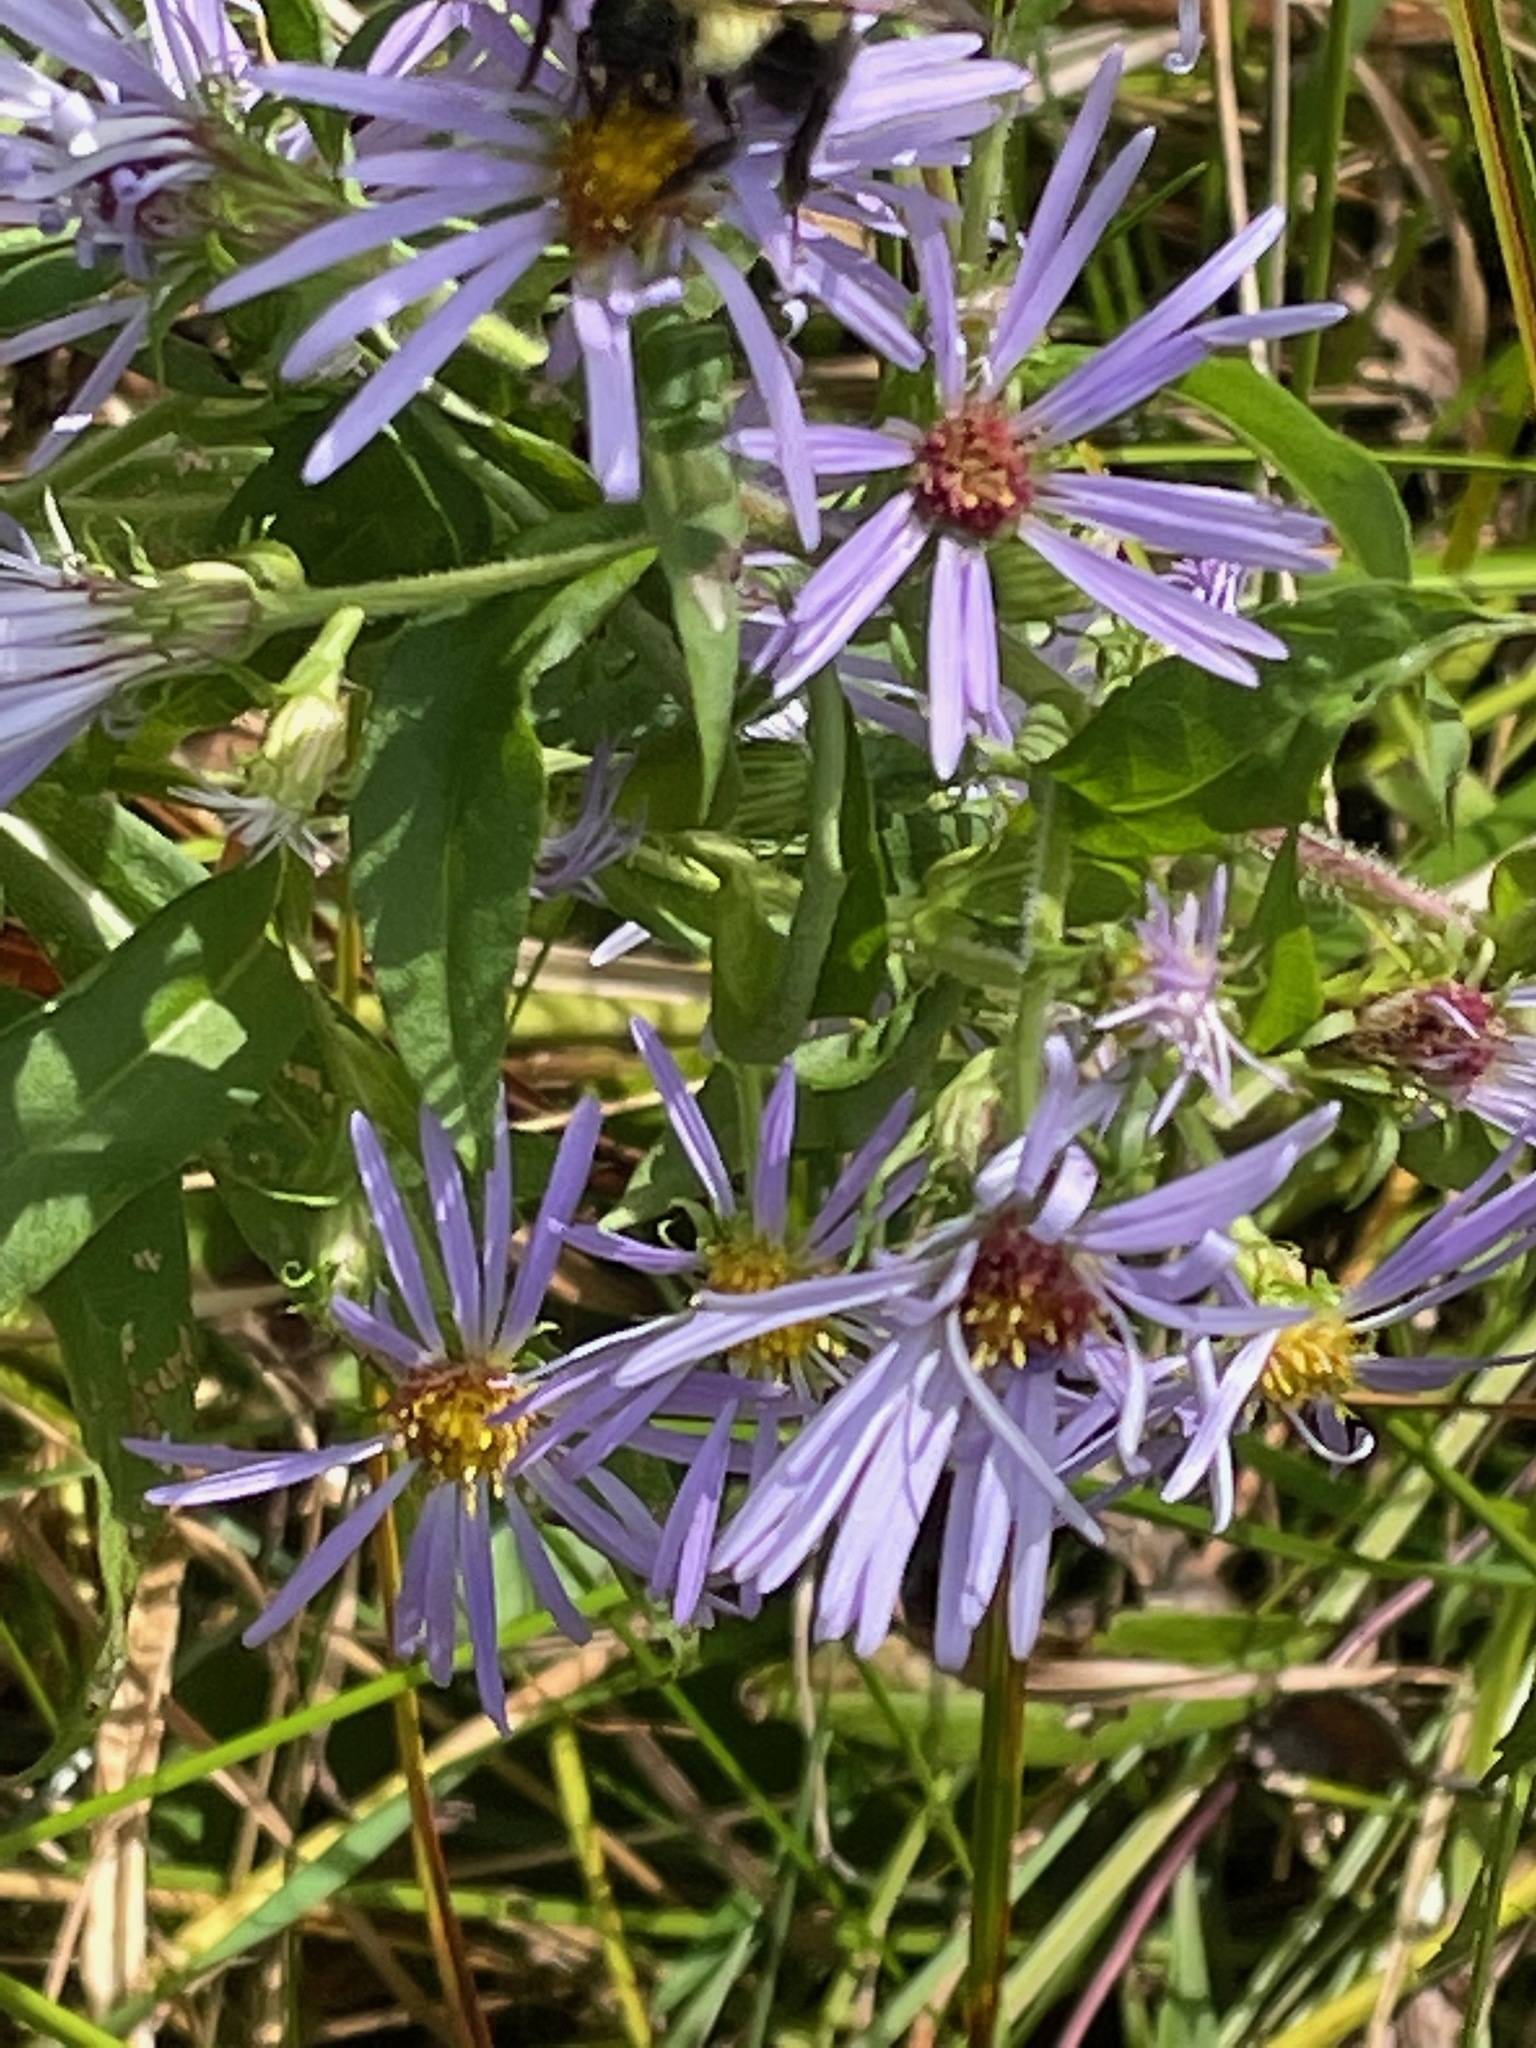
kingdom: Plantae
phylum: Tracheophyta
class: Magnoliopsida
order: Asterales
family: Asteraceae
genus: Symphyotrichum
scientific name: Symphyotrichum puniceum
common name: Bog aster
